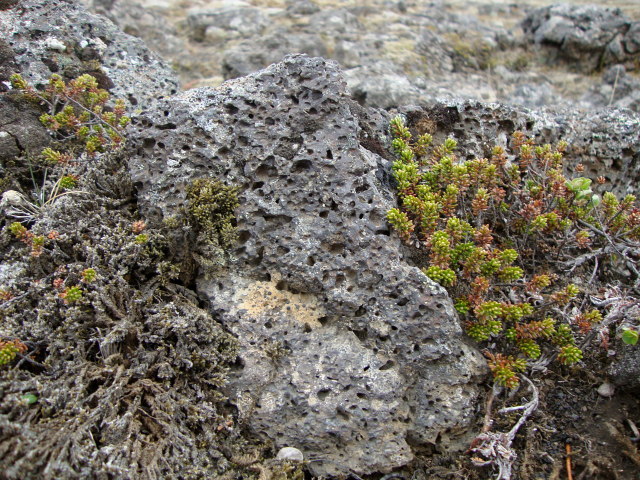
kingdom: Plantae
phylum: Tracheophyta
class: Magnoliopsida
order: Ericales
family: Ericaceae
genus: Empetrum
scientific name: Empetrum nigrum
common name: Black crowberry
